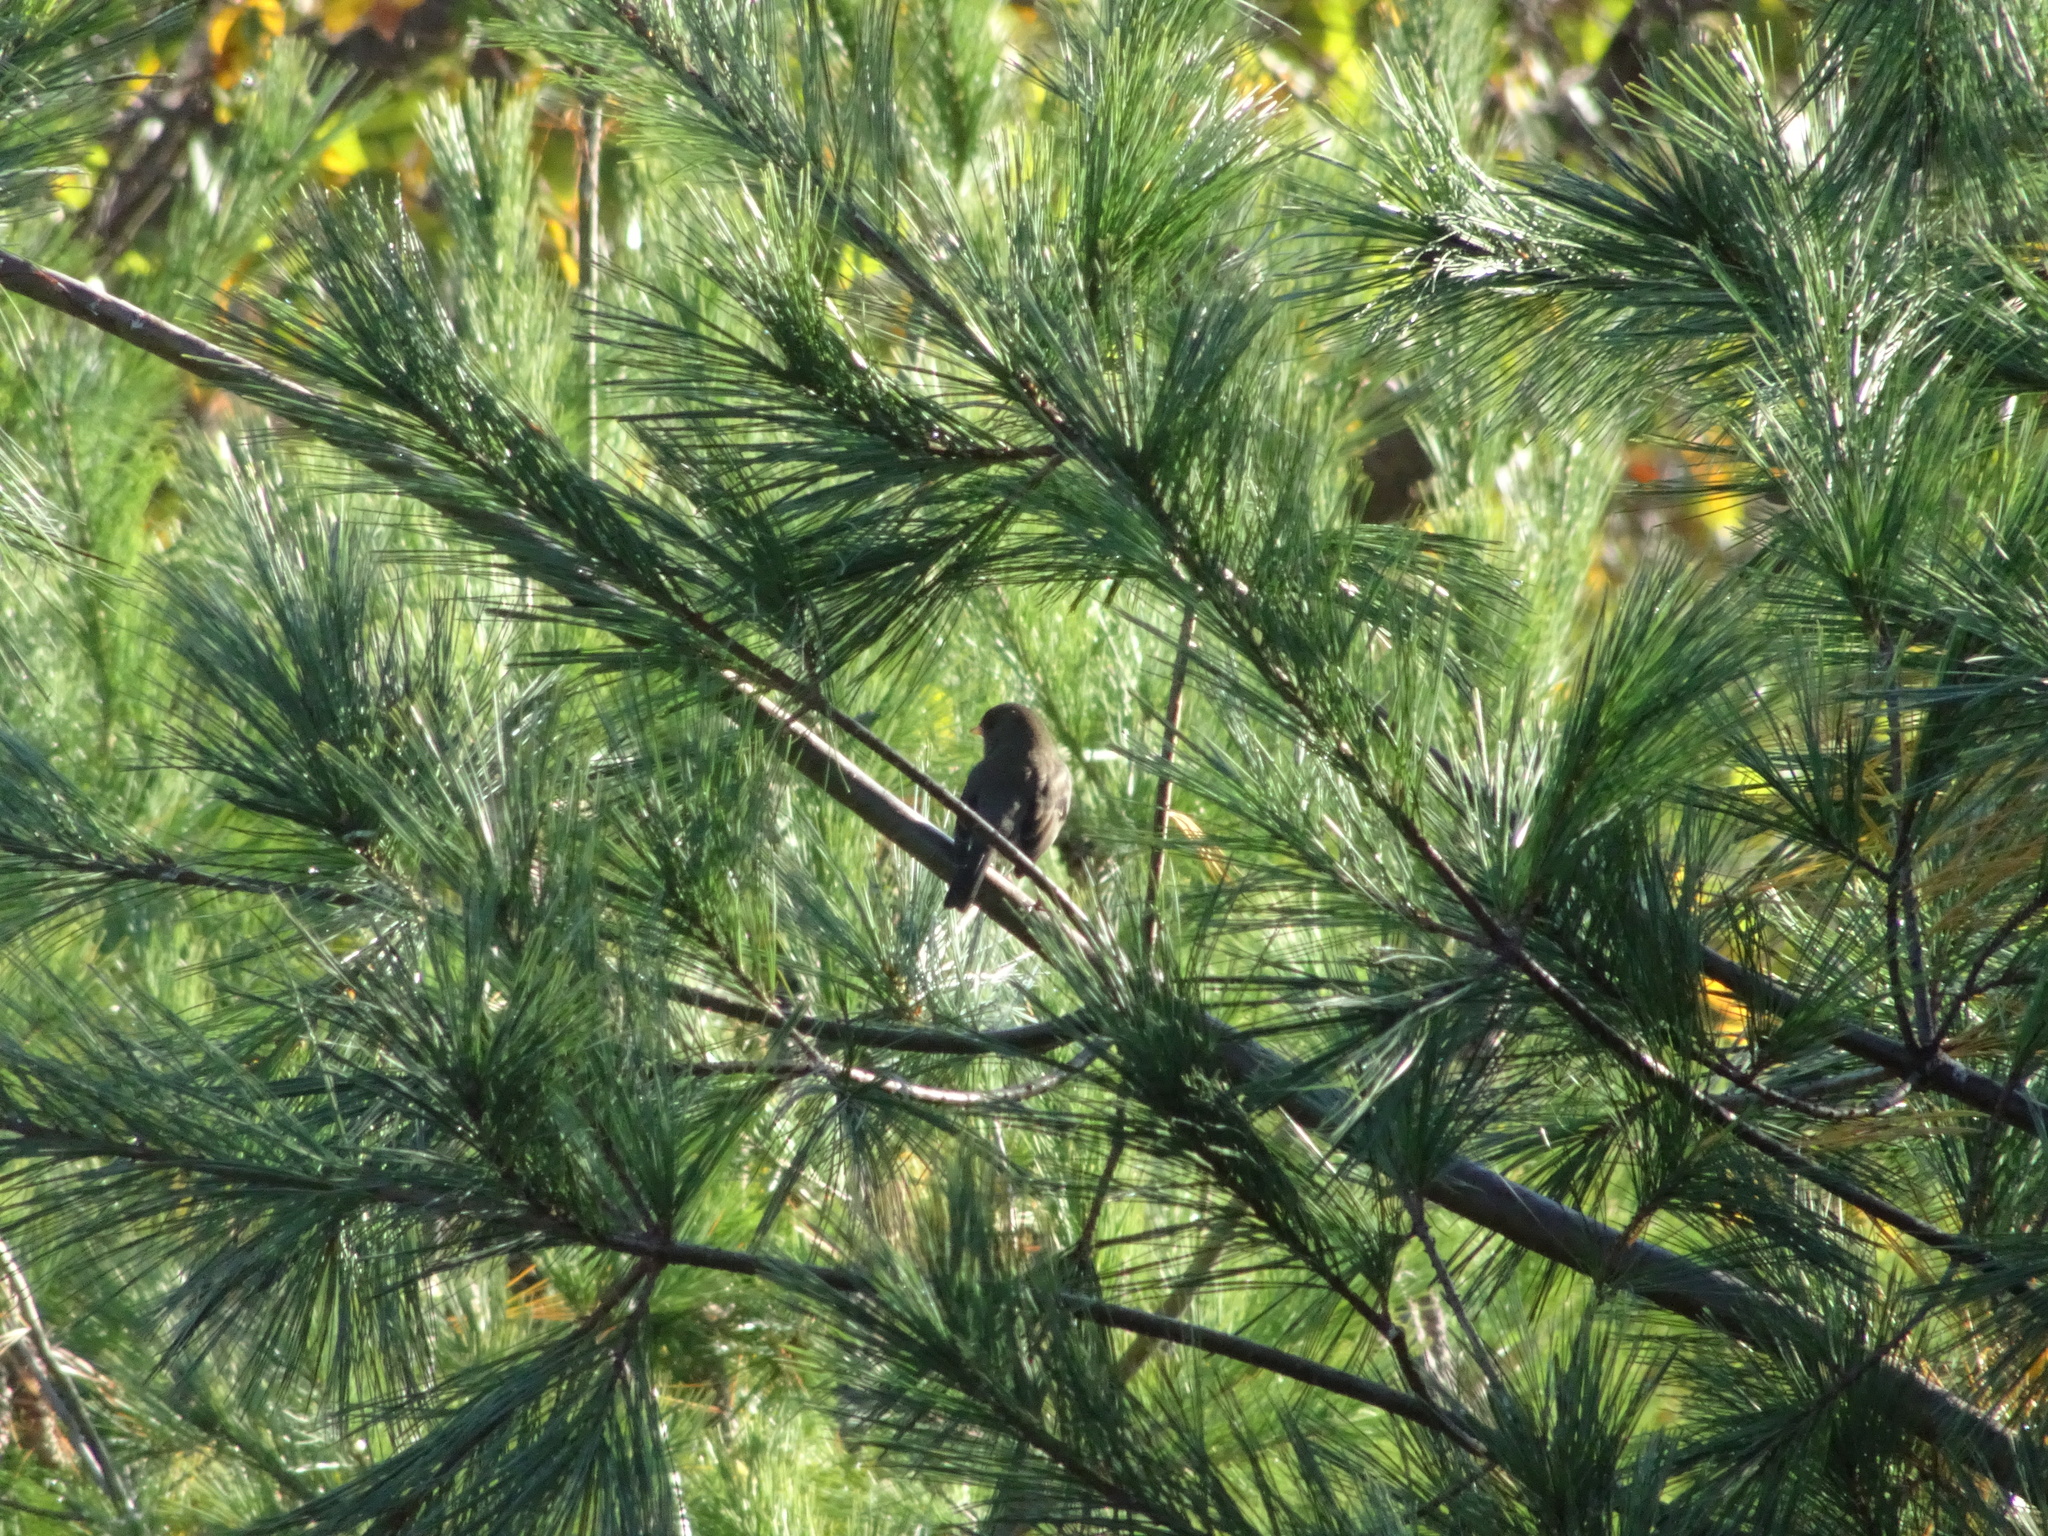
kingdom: Animalia
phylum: Chordata
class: Aves
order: Passeriformes
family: Passerellidae
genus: Junco
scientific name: Junco hyemalis
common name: Dark-eyed junco
